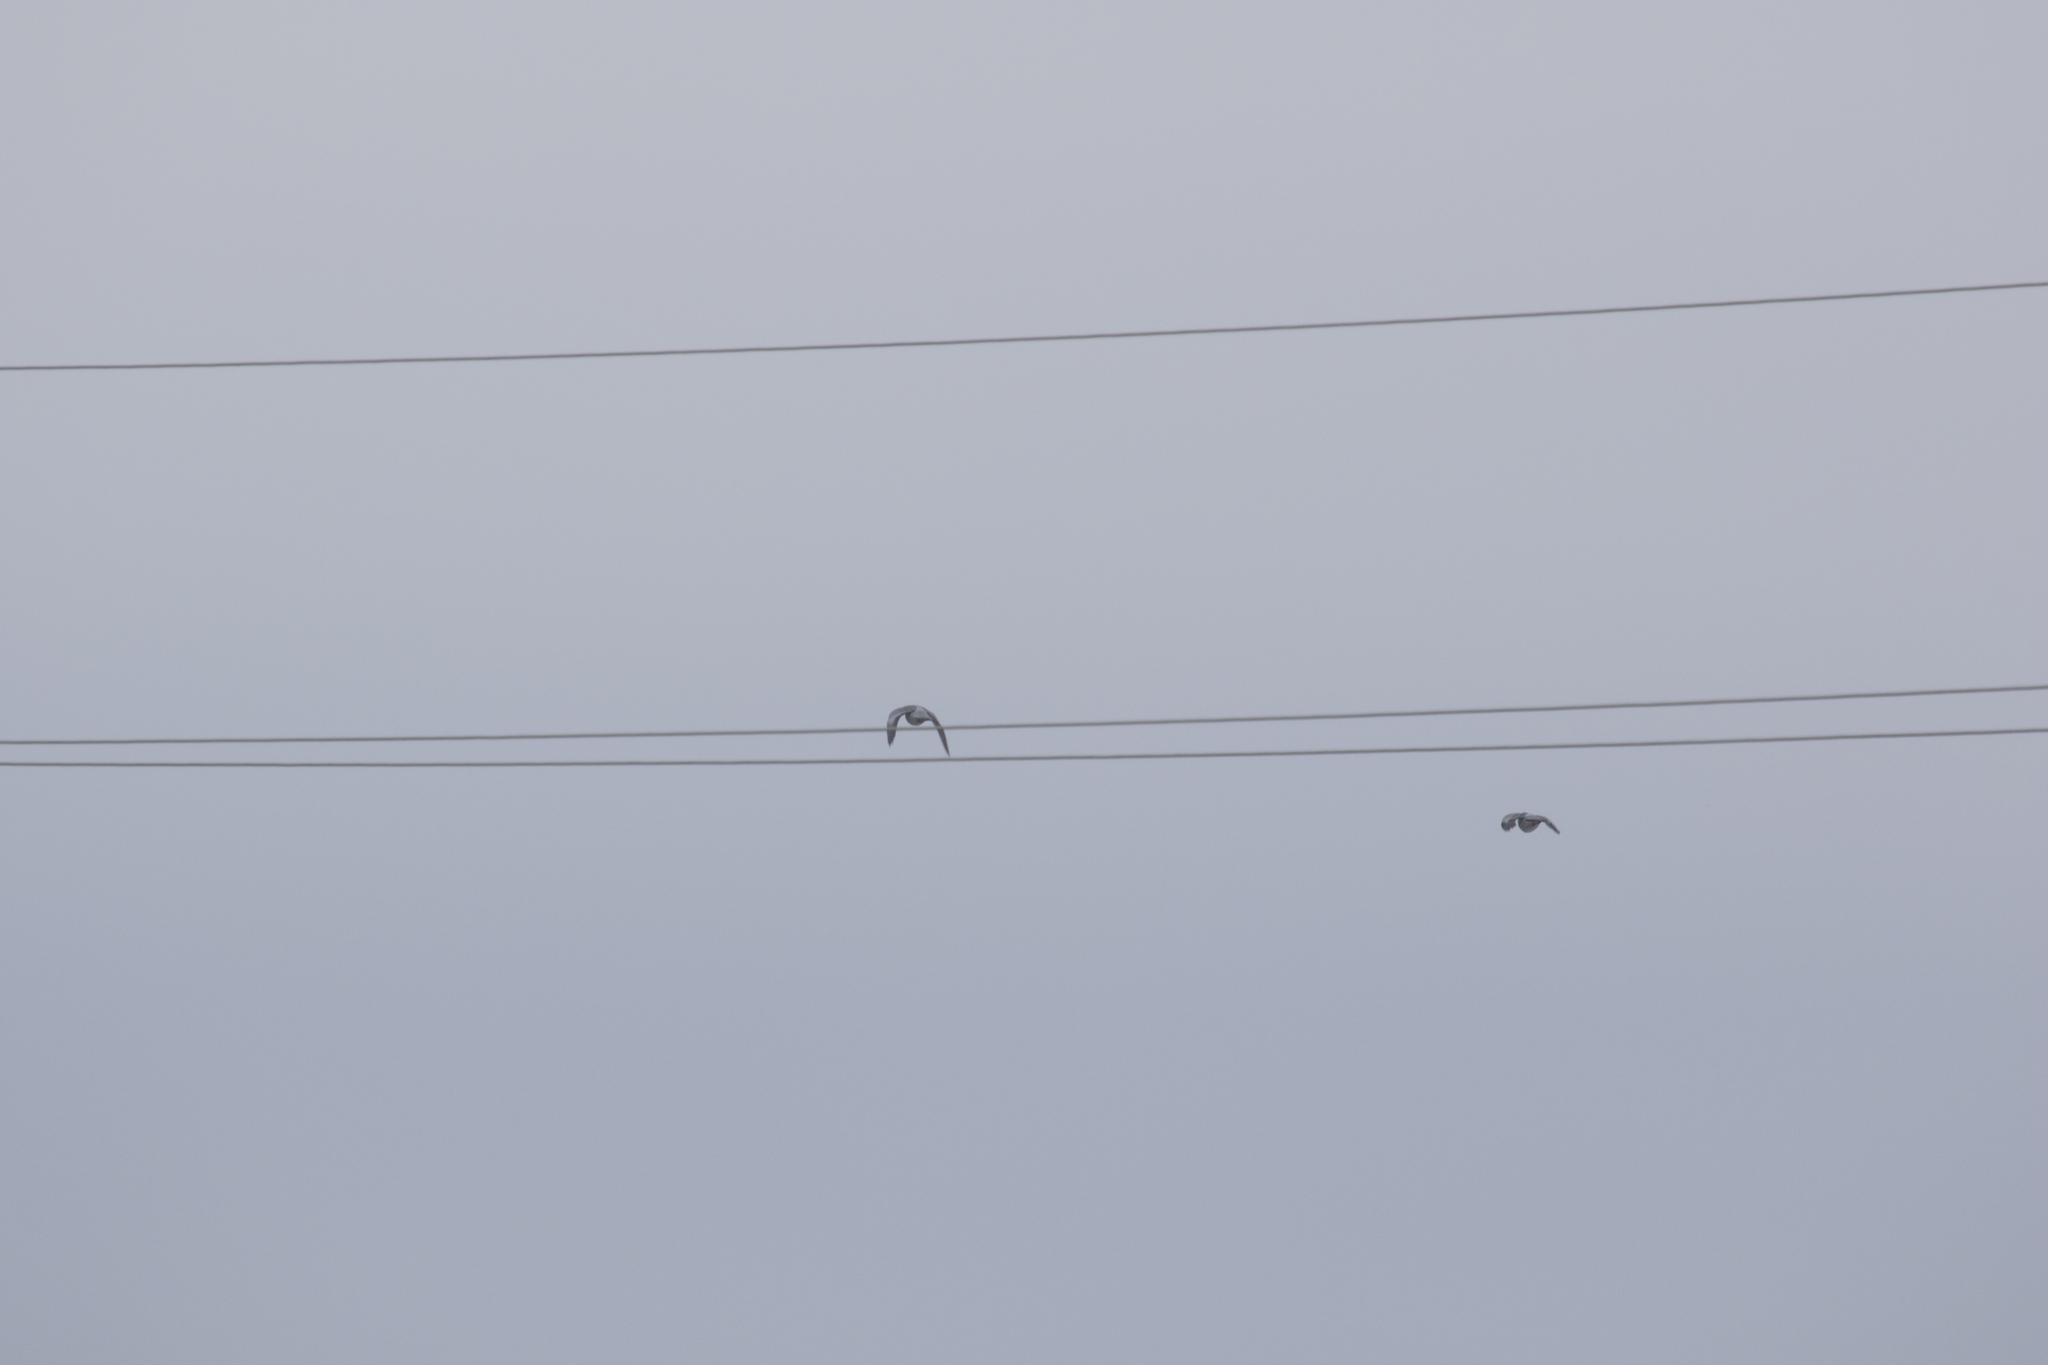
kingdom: Animalia
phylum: Chordata
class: Aves
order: Columbiformes
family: Columbidae
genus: Columba
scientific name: Columba oenas
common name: Stock dove
